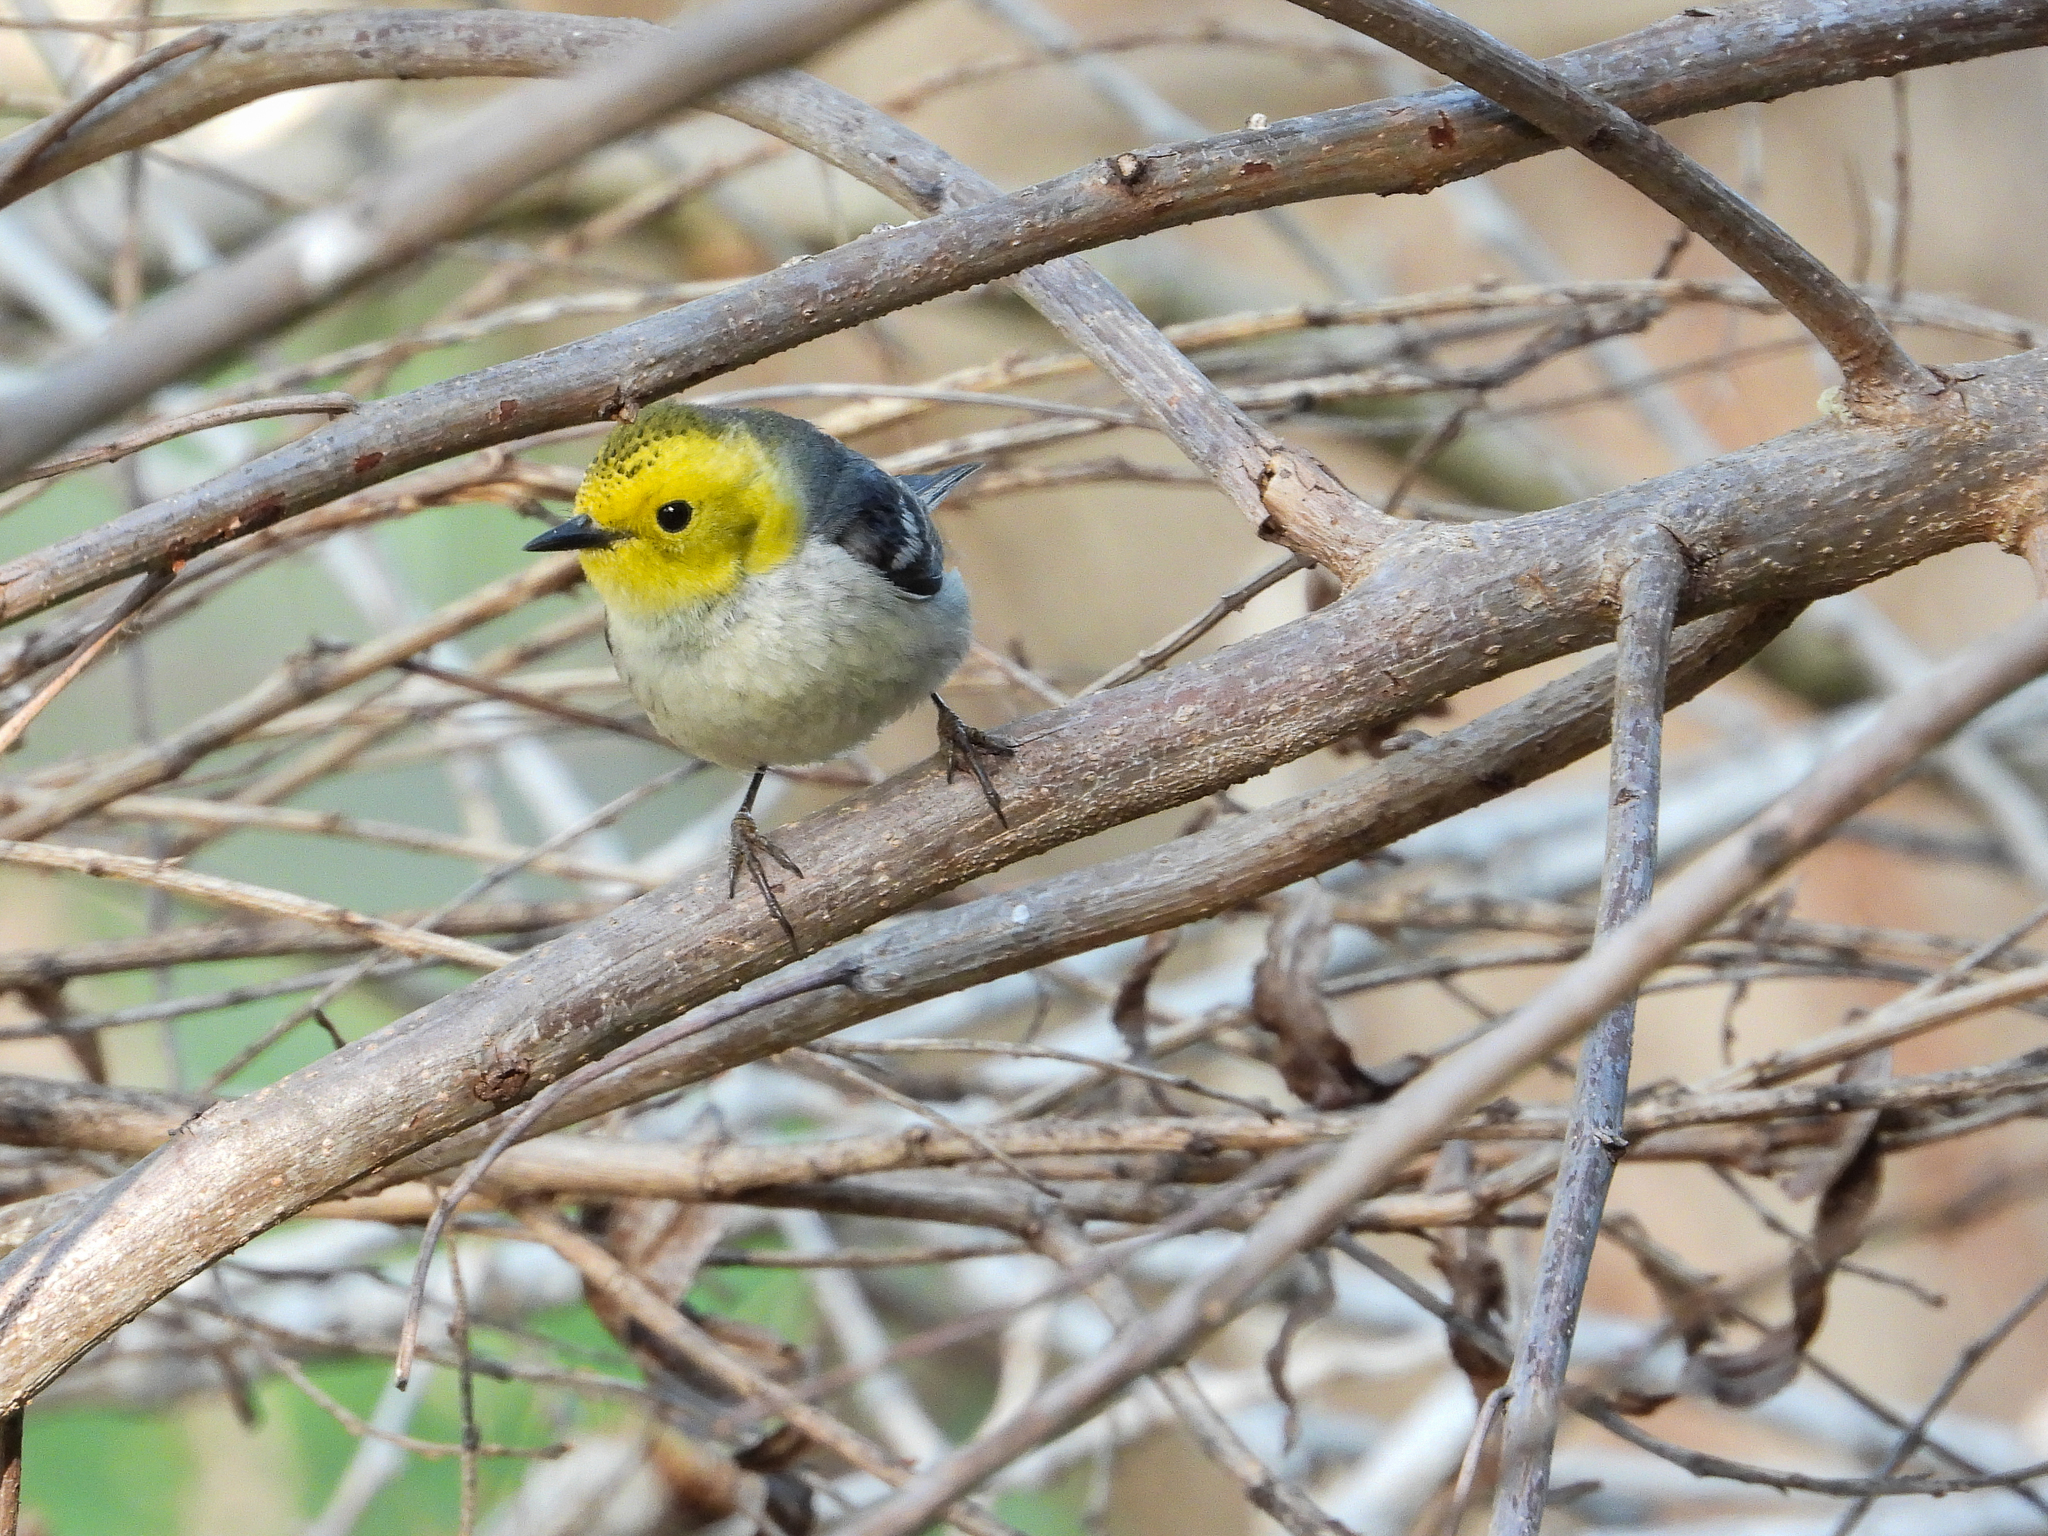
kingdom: Animalia
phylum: Chordata
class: Aves
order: Passeriformes
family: Parulidae
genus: Setophaga
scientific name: Setophaga occidentalis
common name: Hermit warbler
